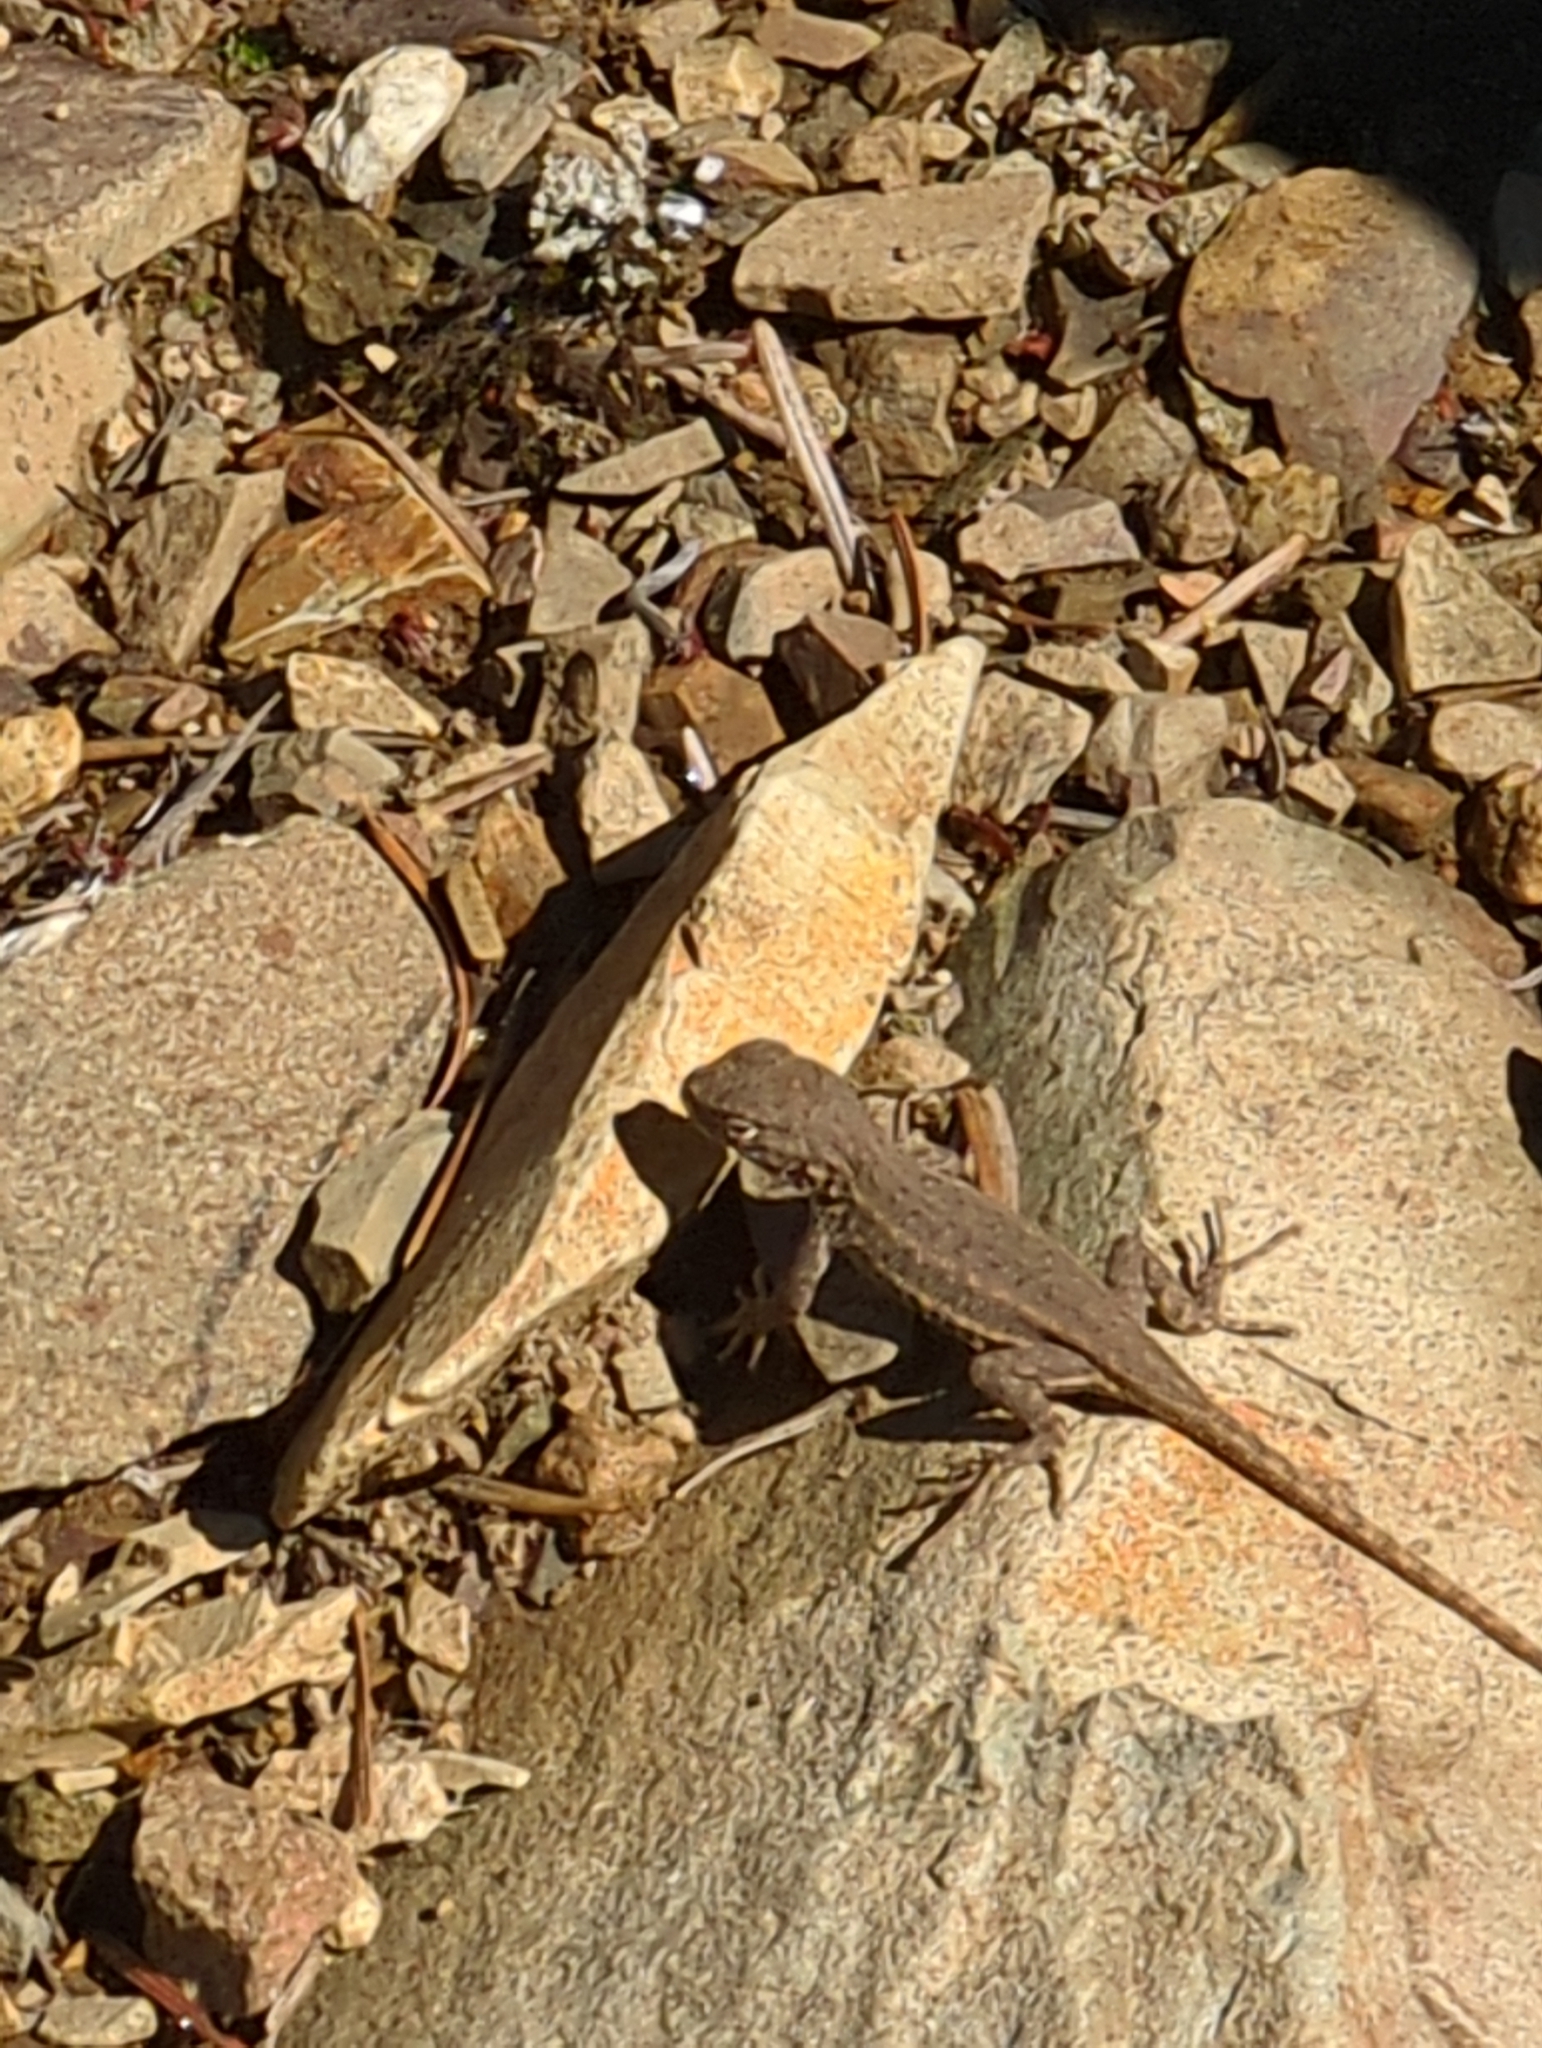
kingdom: Animalia
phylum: Chordata
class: Squamata
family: Phrynosomatidae
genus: Sceloporus
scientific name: Sceloporus graciosus
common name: Sagebrush lizard
